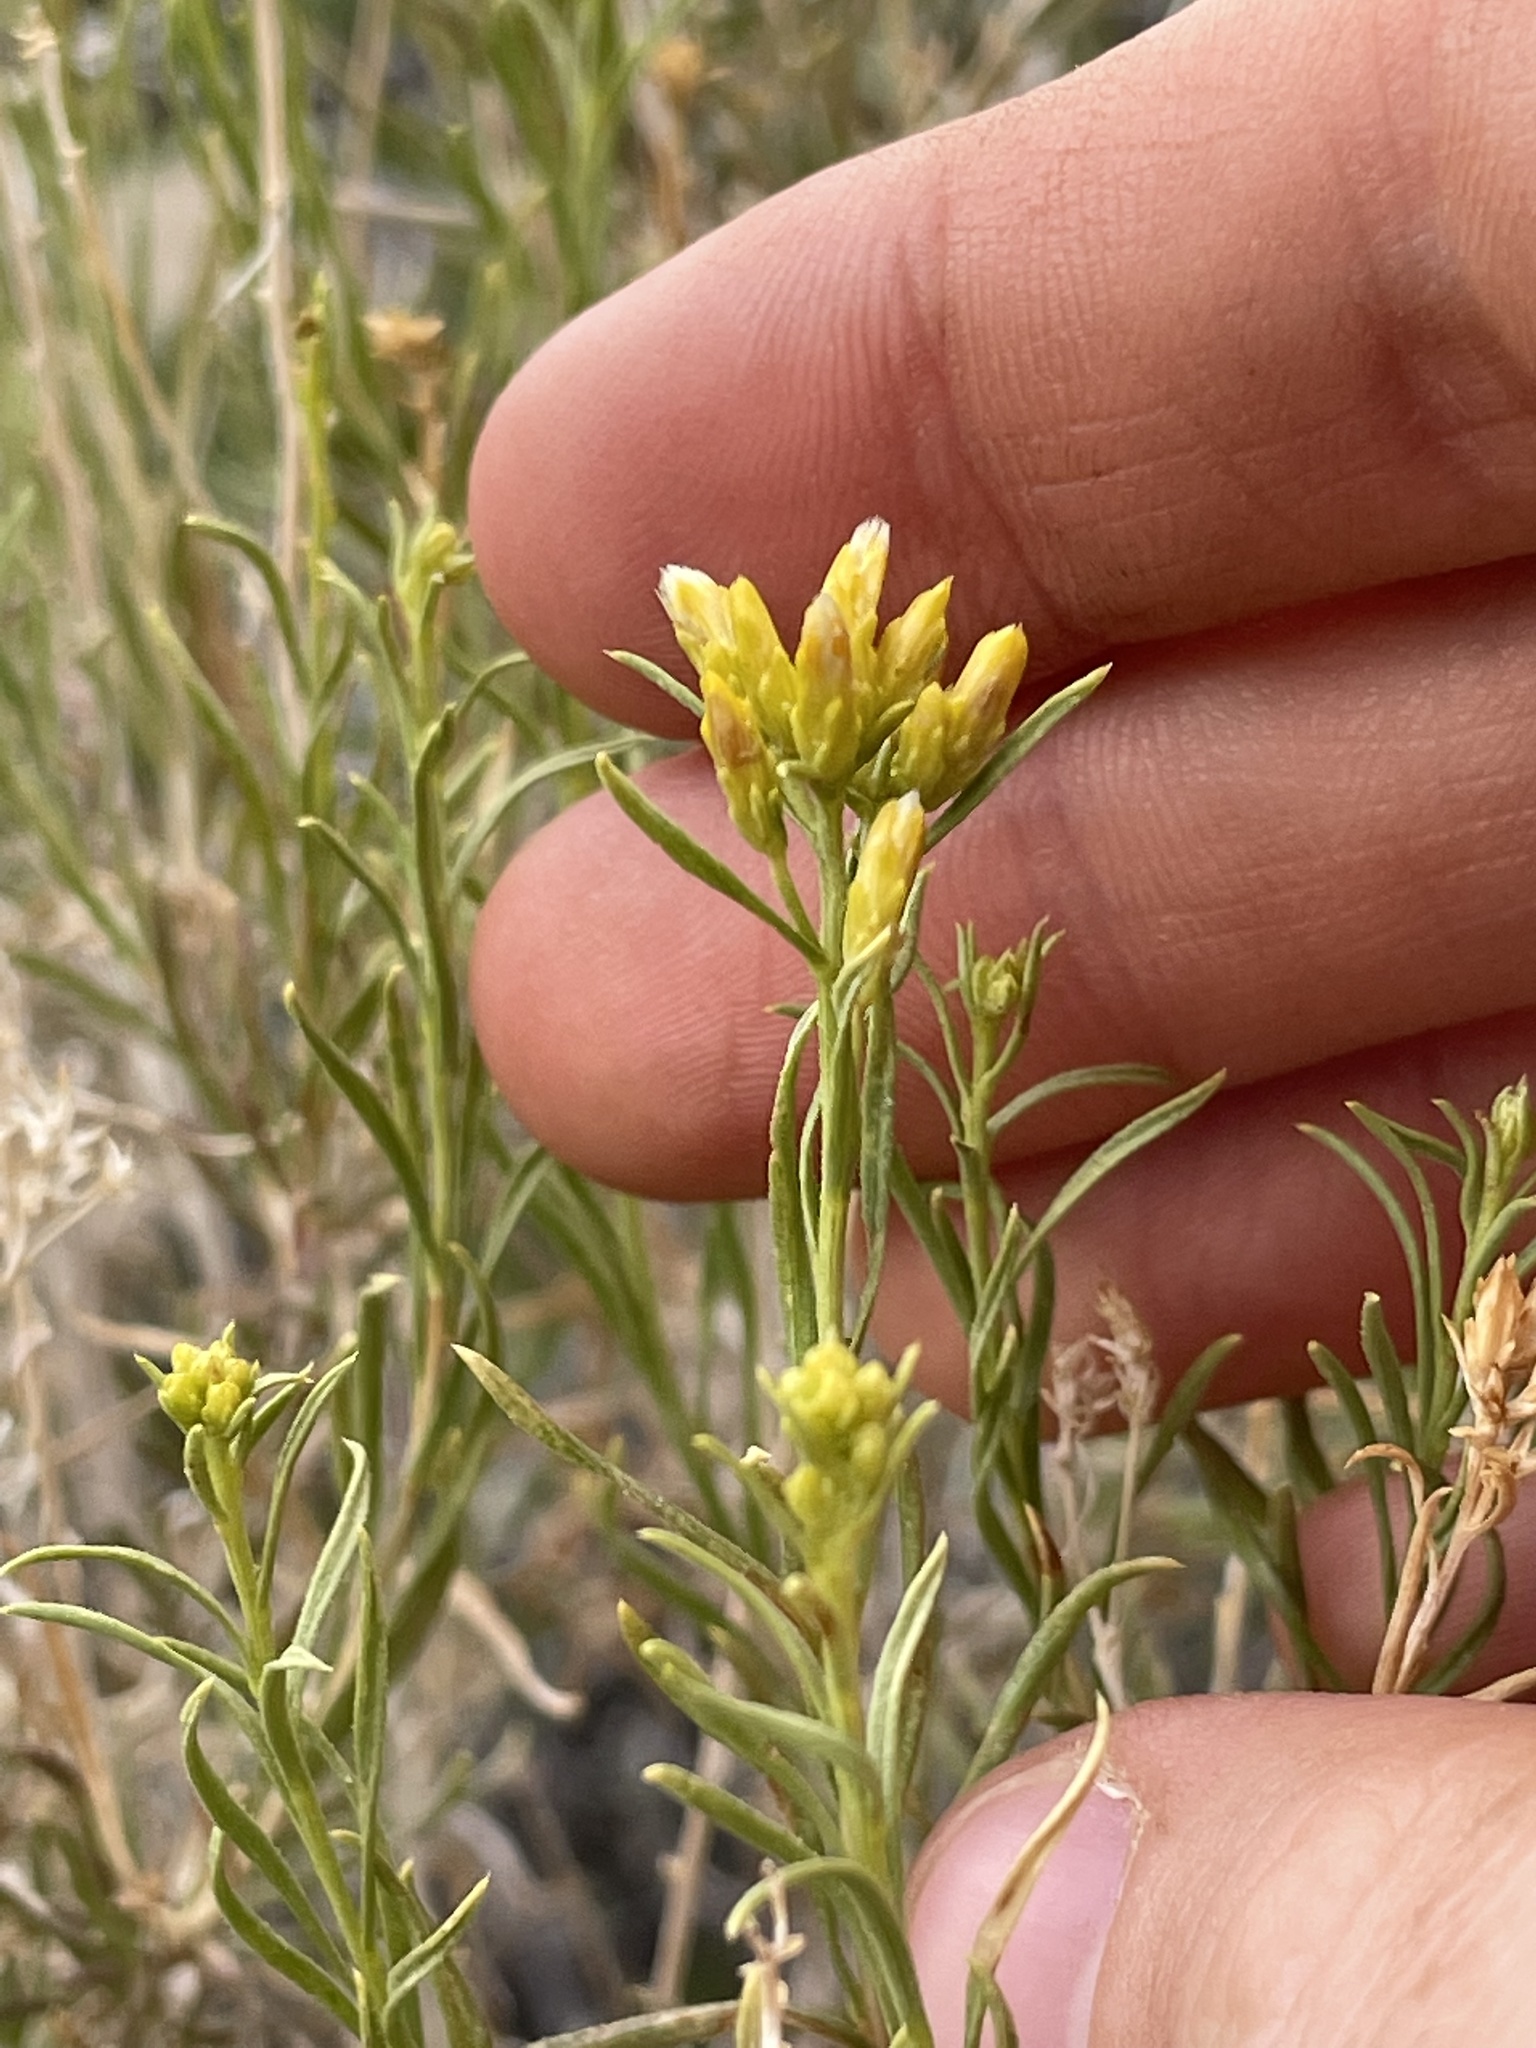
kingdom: Plantae
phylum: Tracheophyta
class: Magnoliopsida
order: Asterales
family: Asteraceae
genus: Gutierrezia
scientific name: Gutierrezia sarothrae
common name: Broom snakeweed
